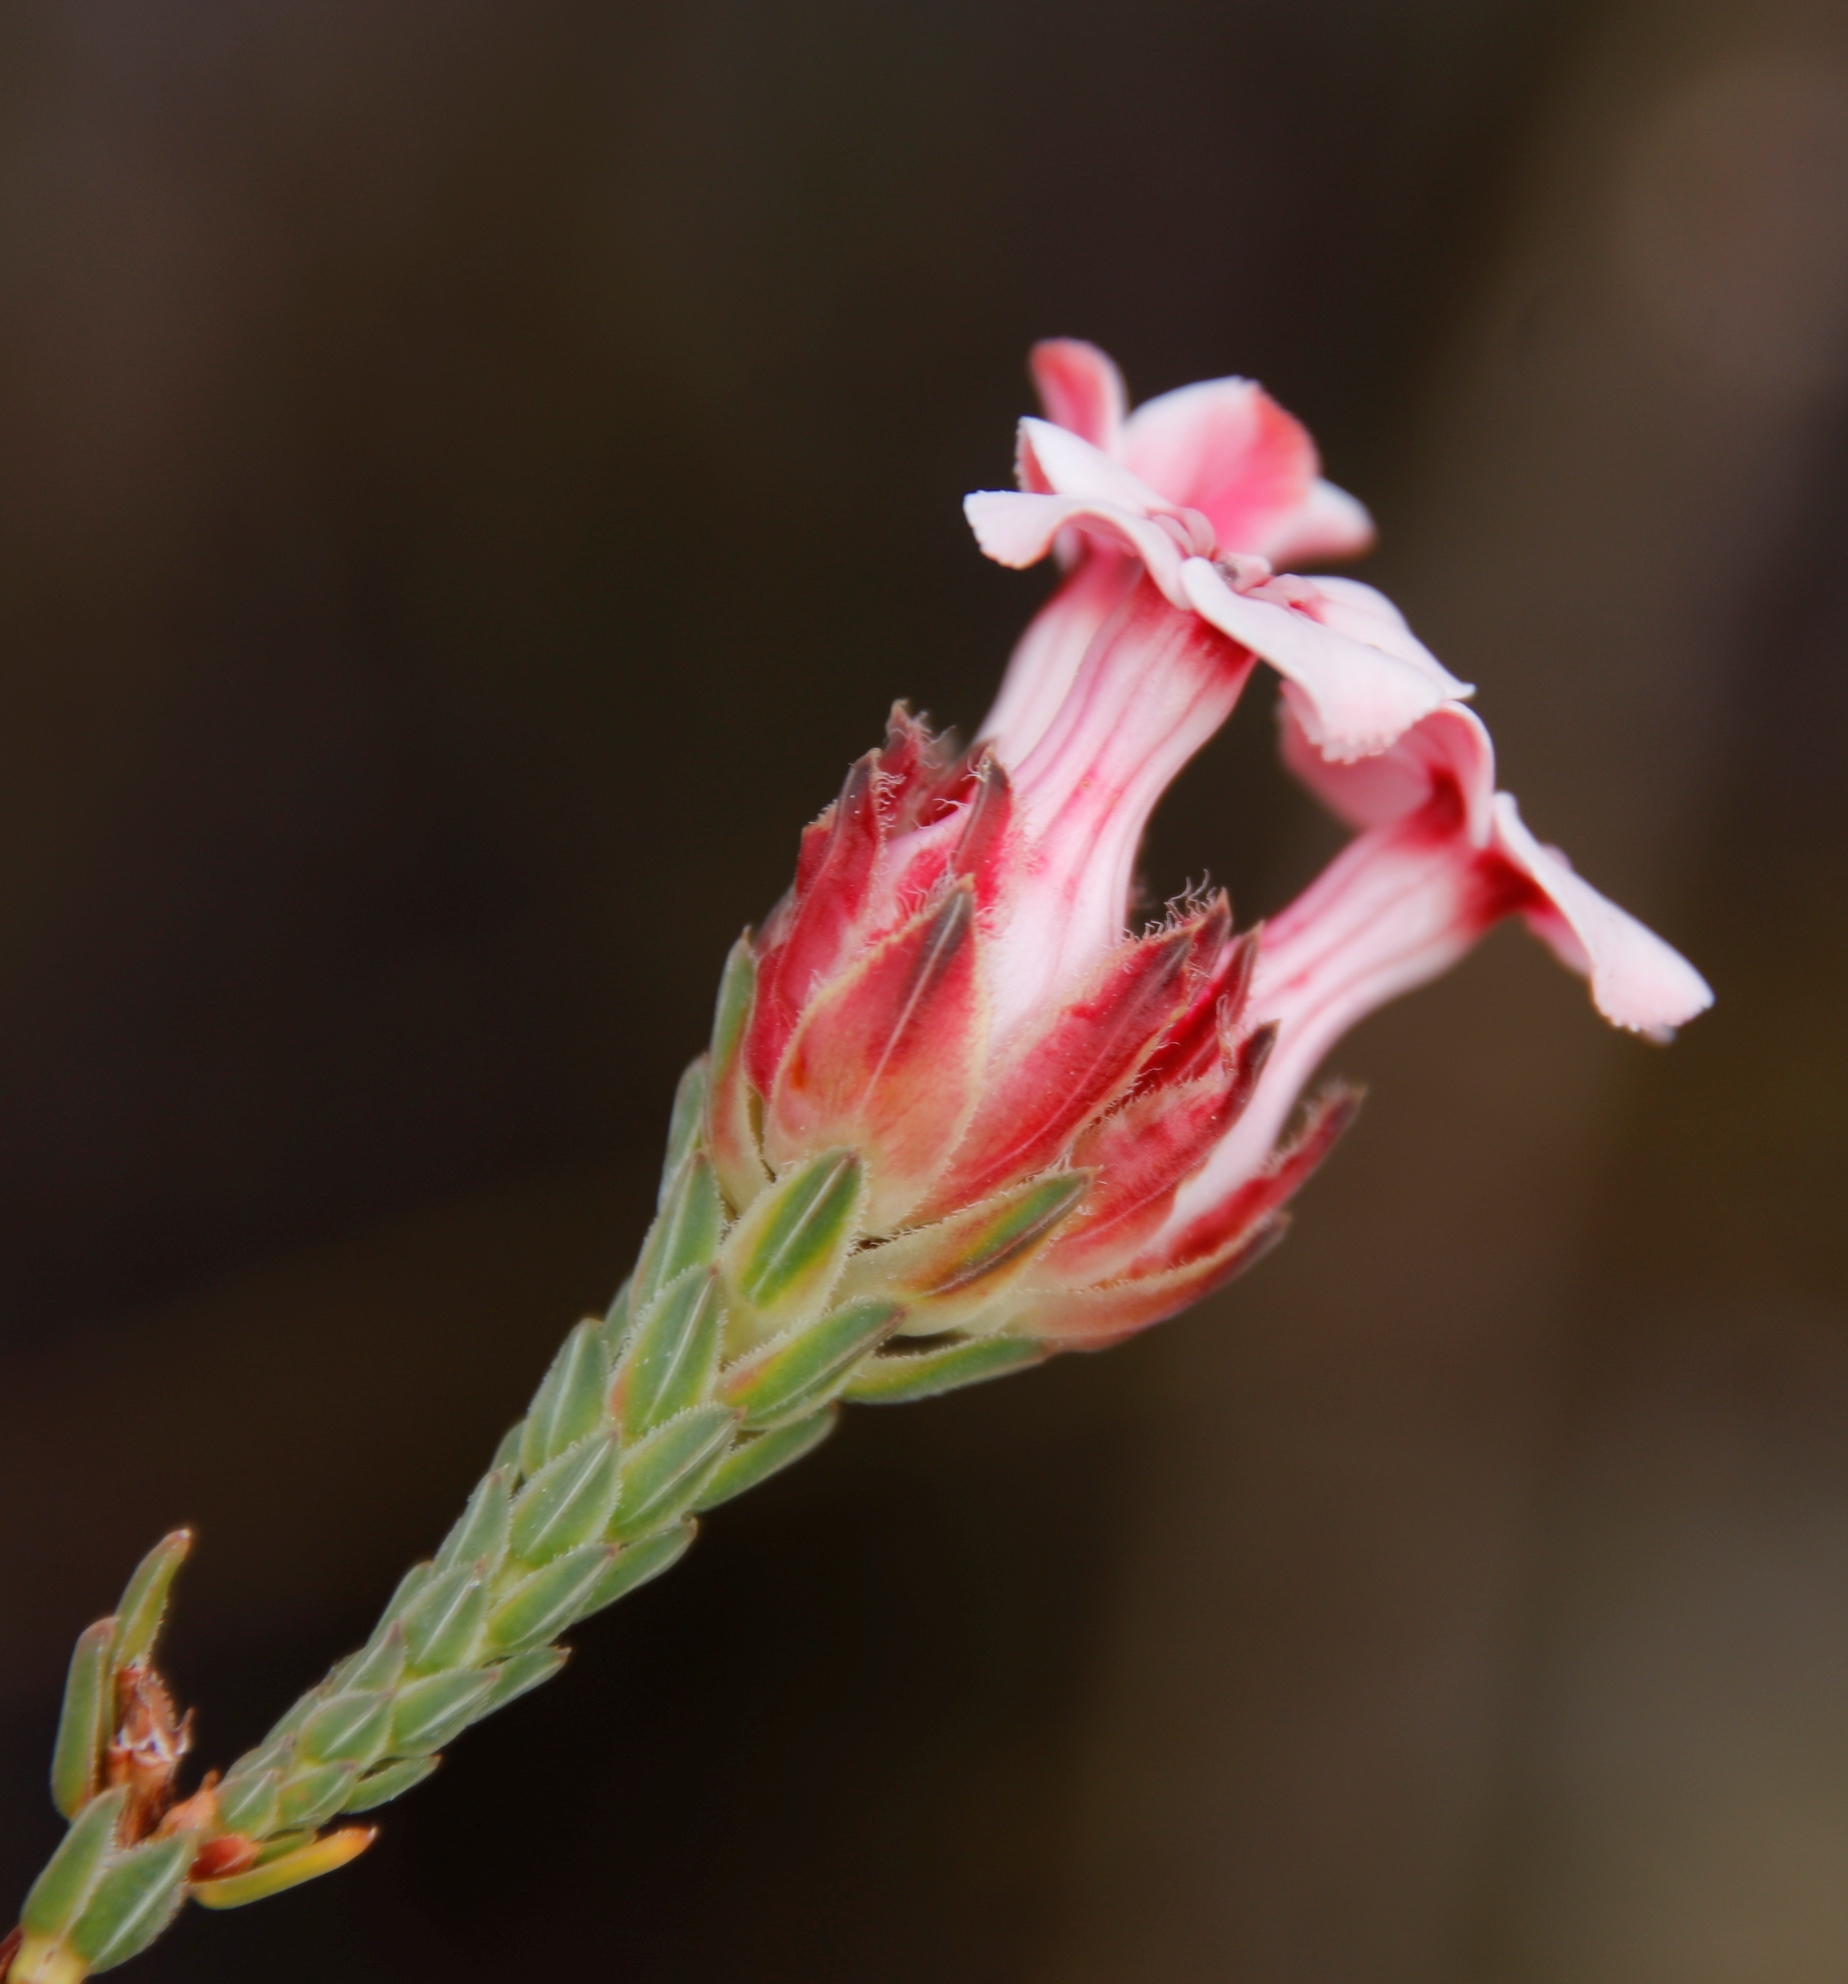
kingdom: Plantae
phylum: Tracheophyta
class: Magnoliopsida
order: Ericales
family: Ericaceae
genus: Erica
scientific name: Erica ampullacea
